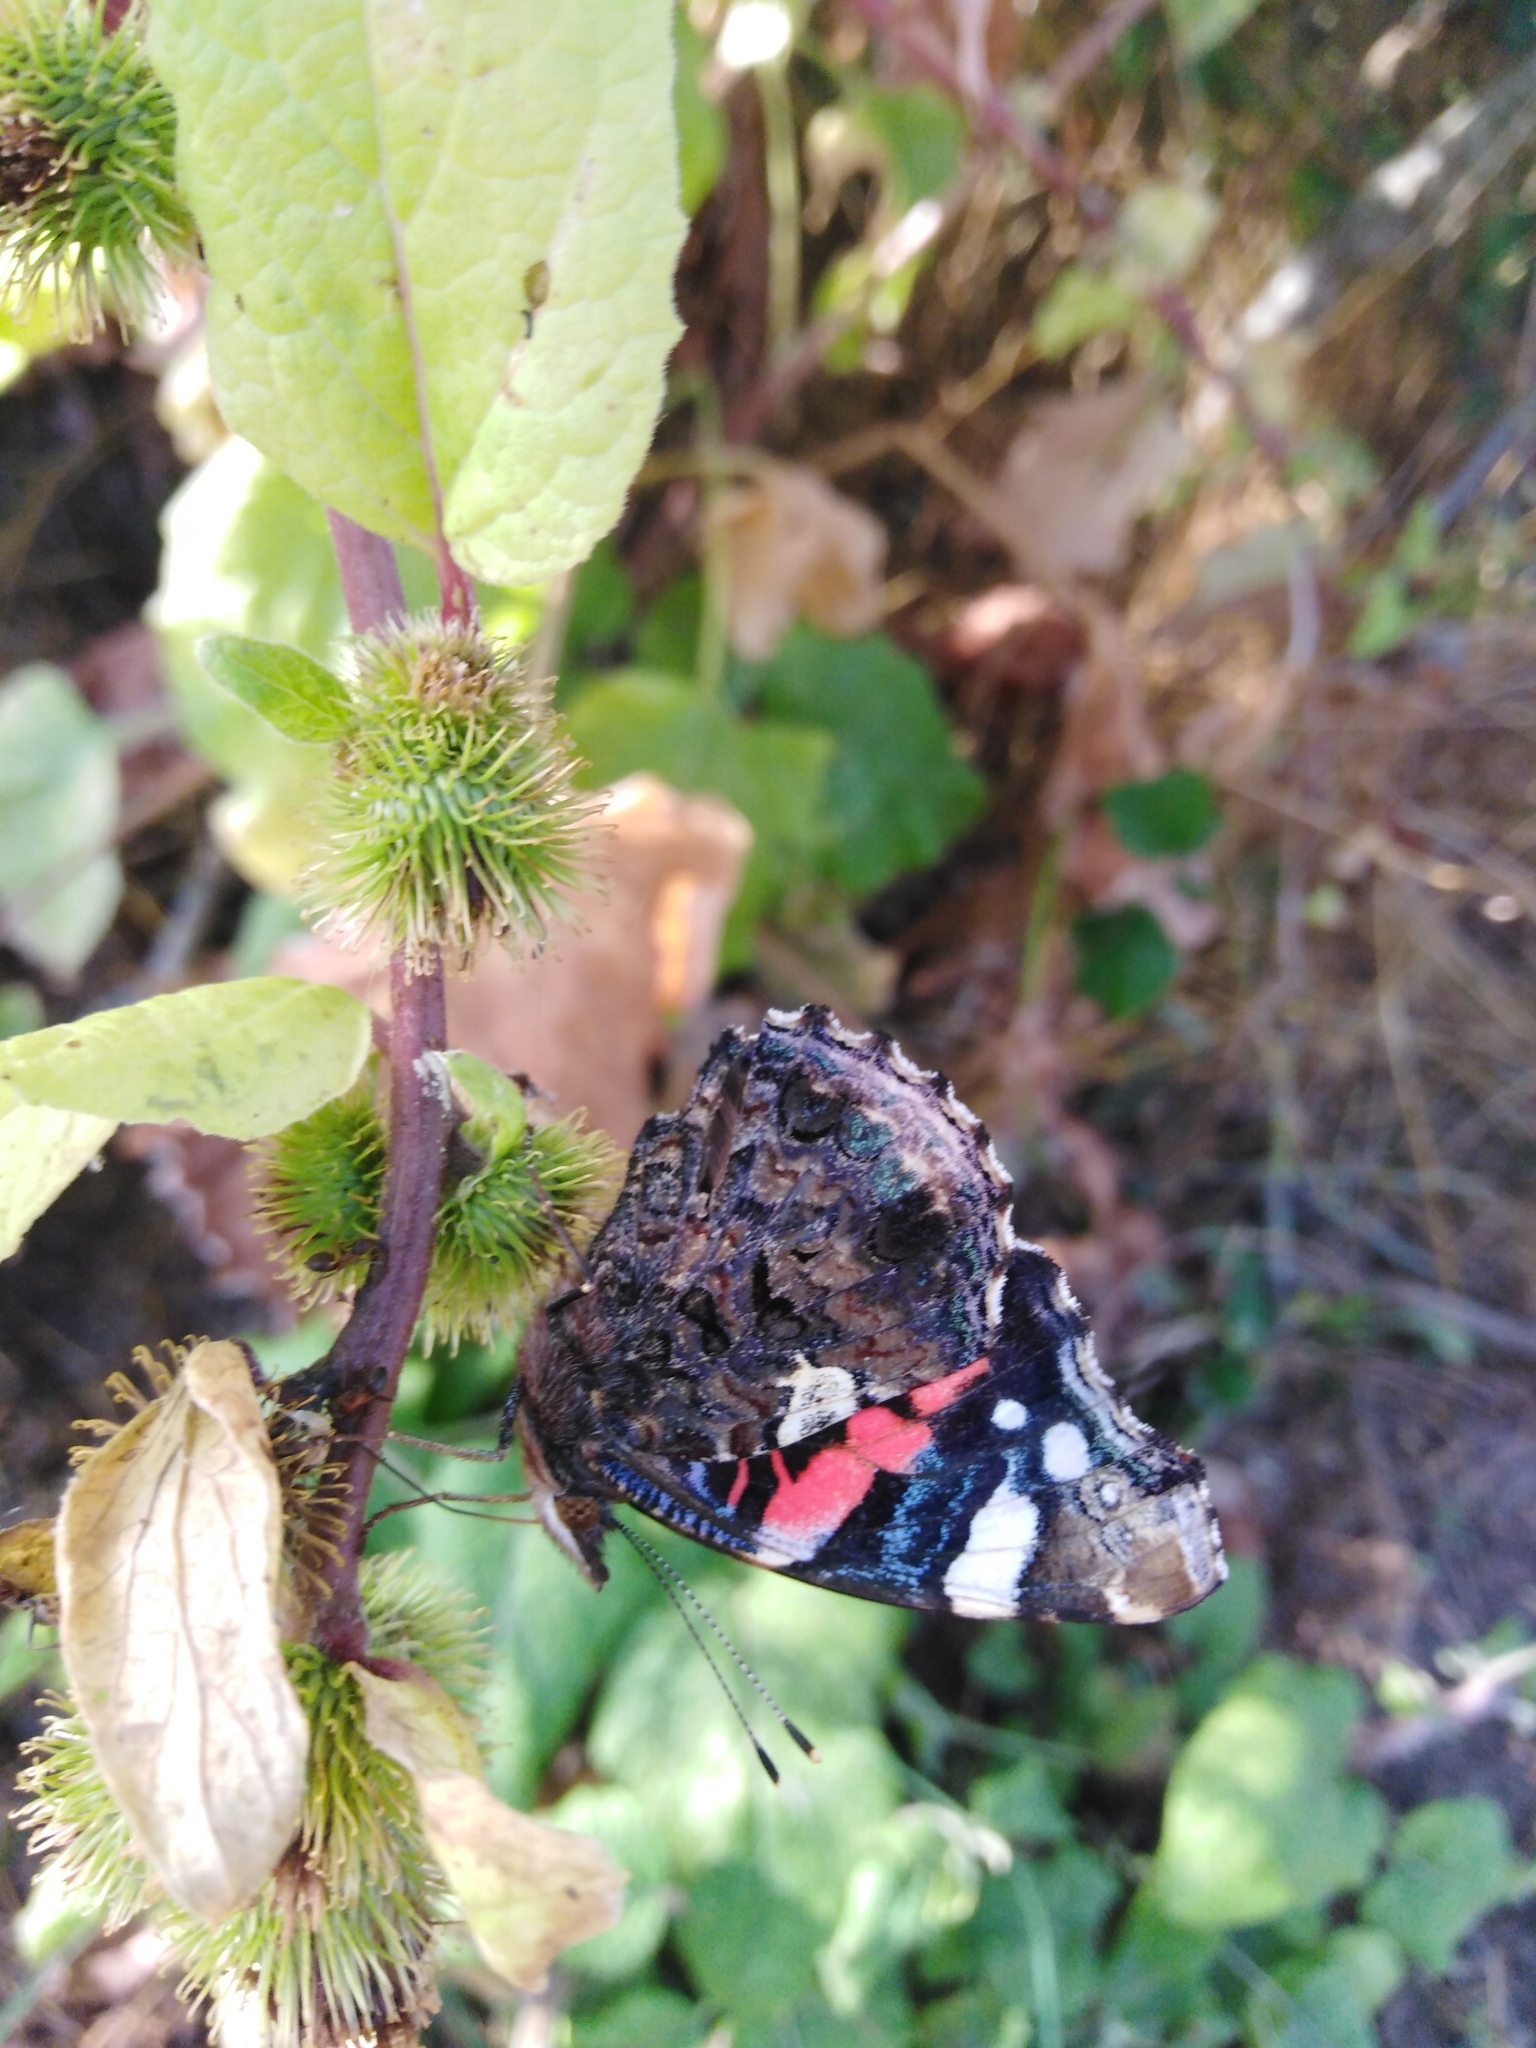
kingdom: Animalia
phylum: Arthropoda
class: Insecta
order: Lepidoptera
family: Nymphalidae
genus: Vanessa
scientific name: Vanessa atalanta
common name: Red admiral
